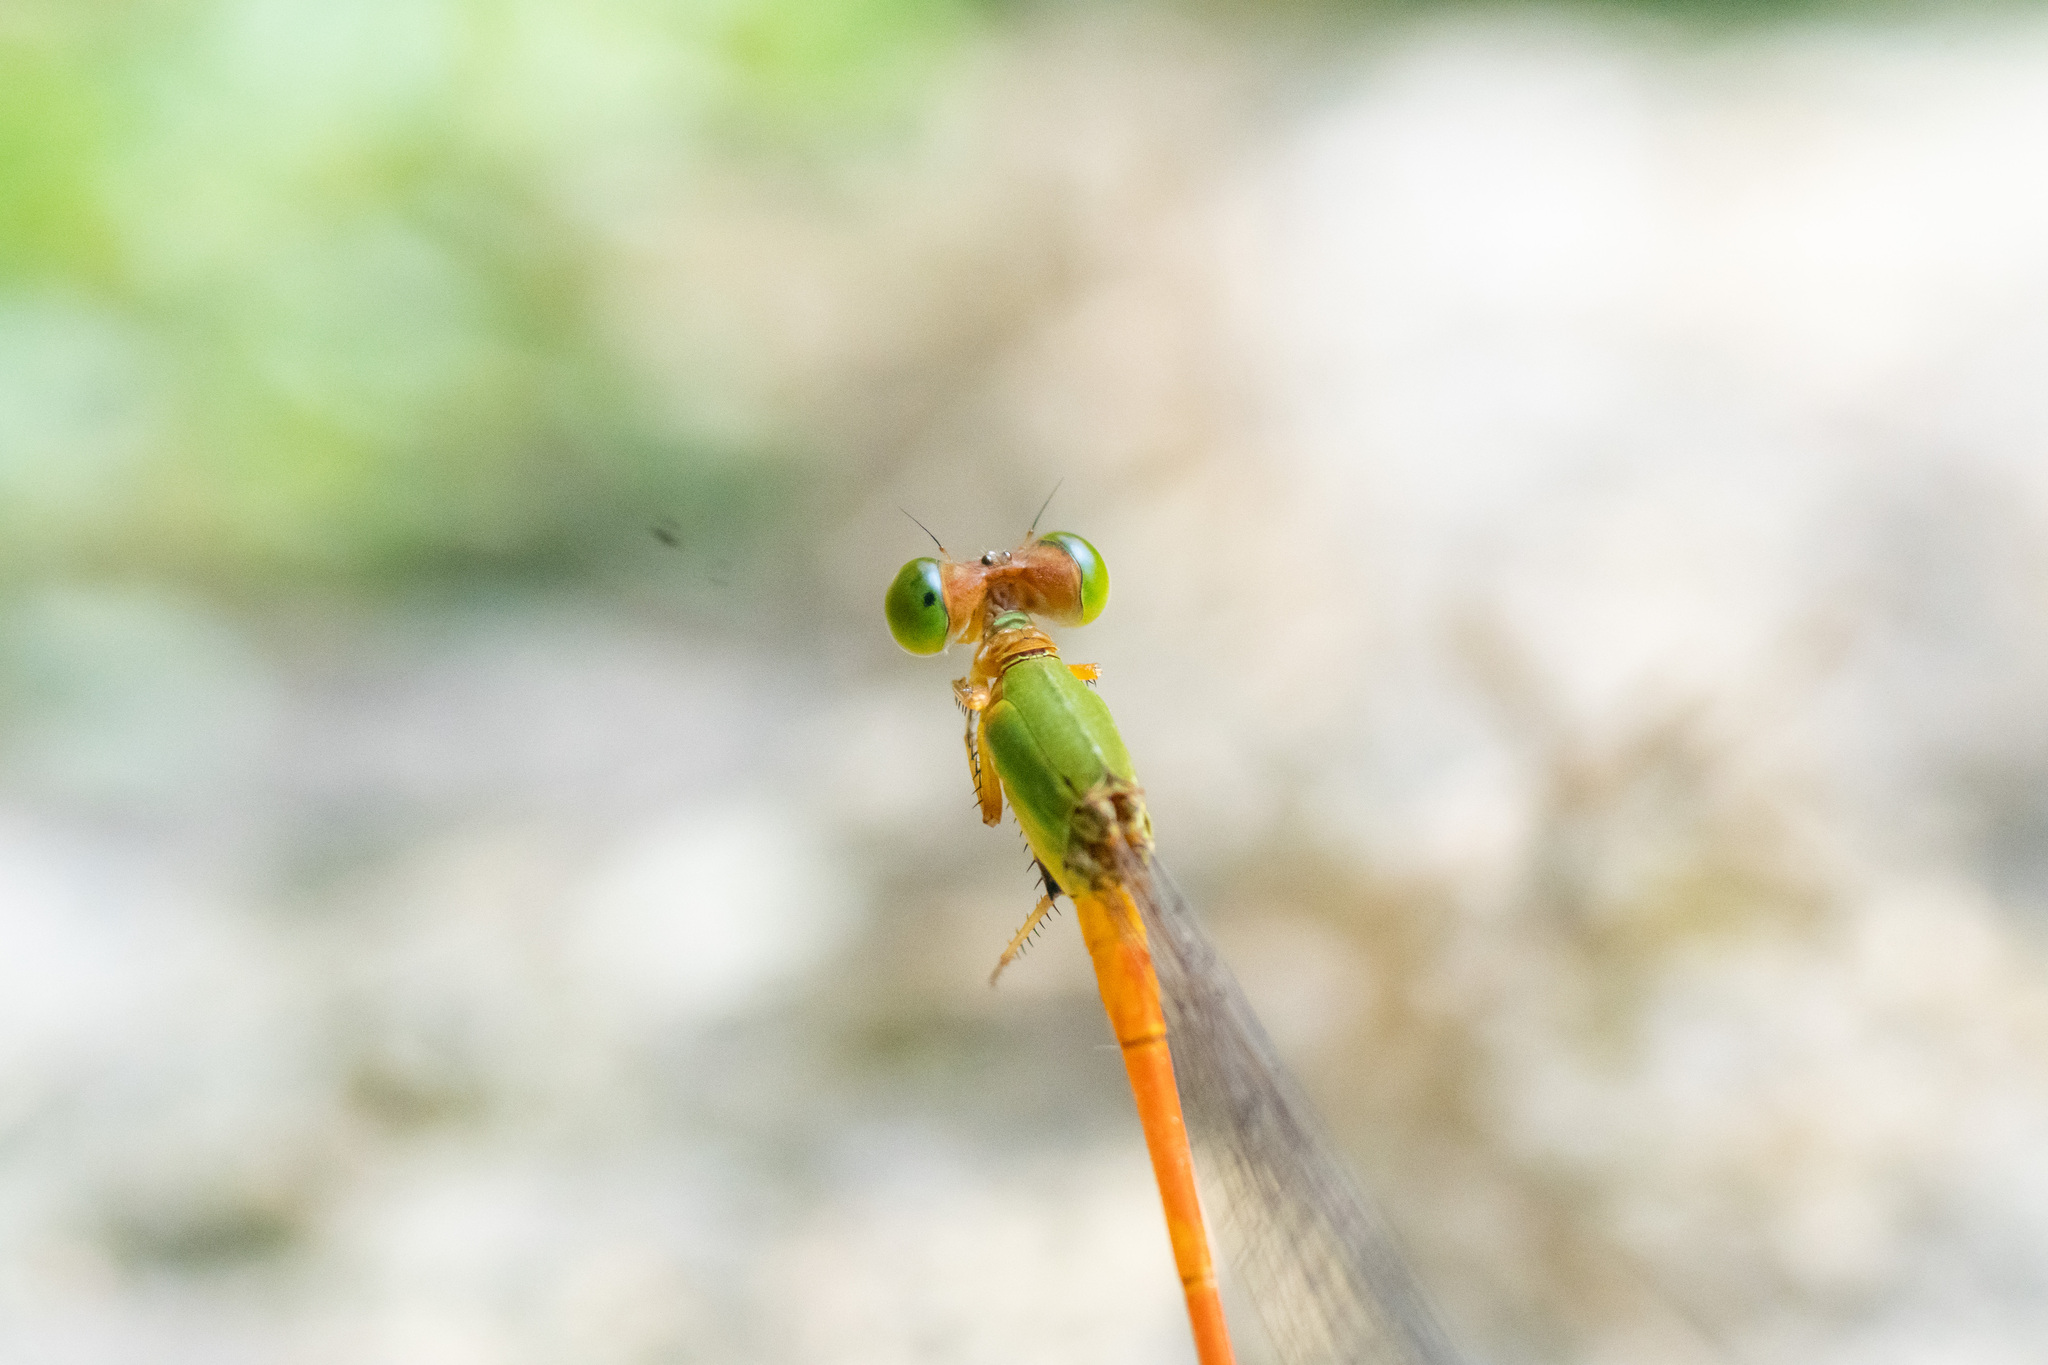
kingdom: Animalia
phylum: Arthropoda
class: Insecta
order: Odonata
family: Coenagrionidae
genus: Ceriagrion
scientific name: Ceriagrion auranticum
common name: Orange-tailed sprite
